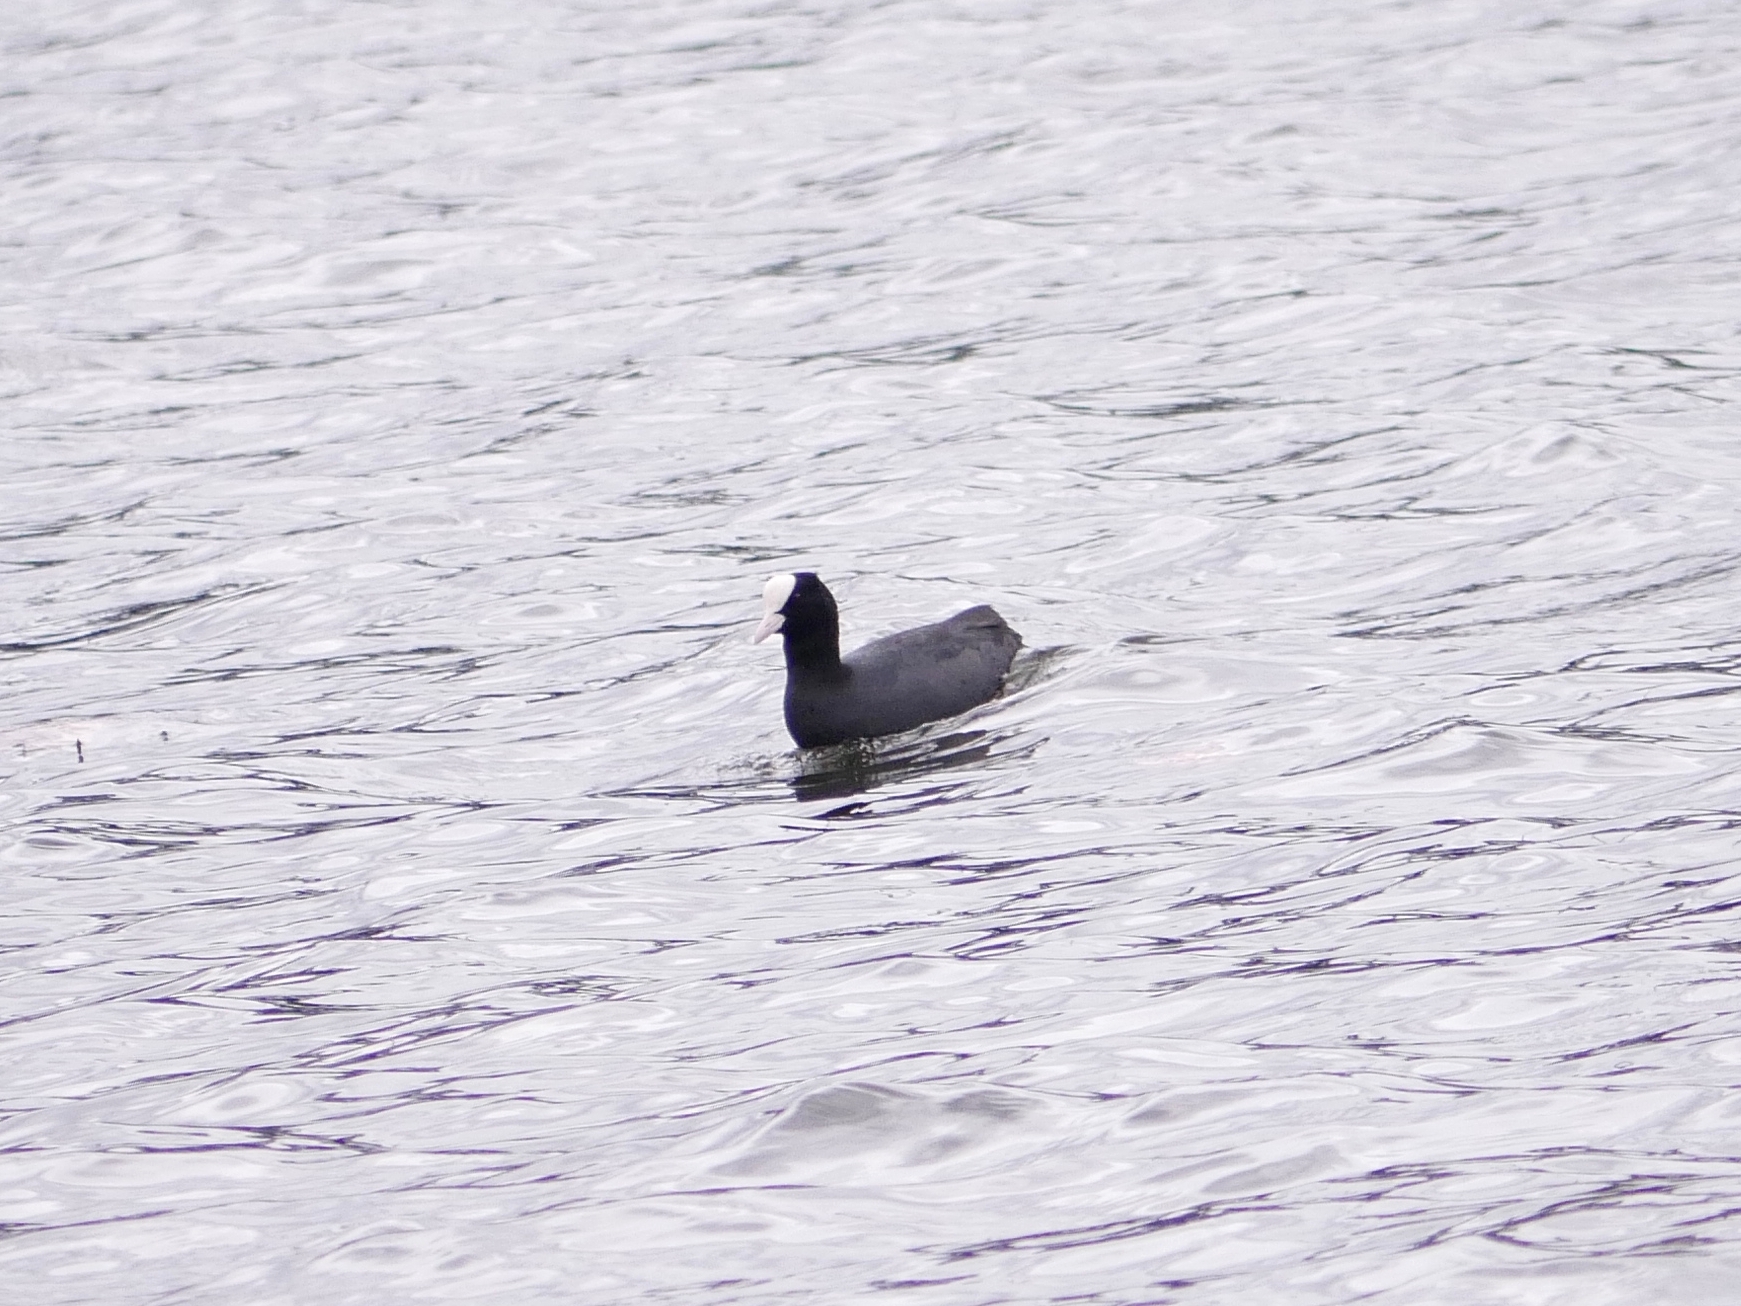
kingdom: Animalia
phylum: Chordata
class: Aves
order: Gruiformes
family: Rallidae
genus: Fulica
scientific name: Fulica atra
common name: Eurasian coot
